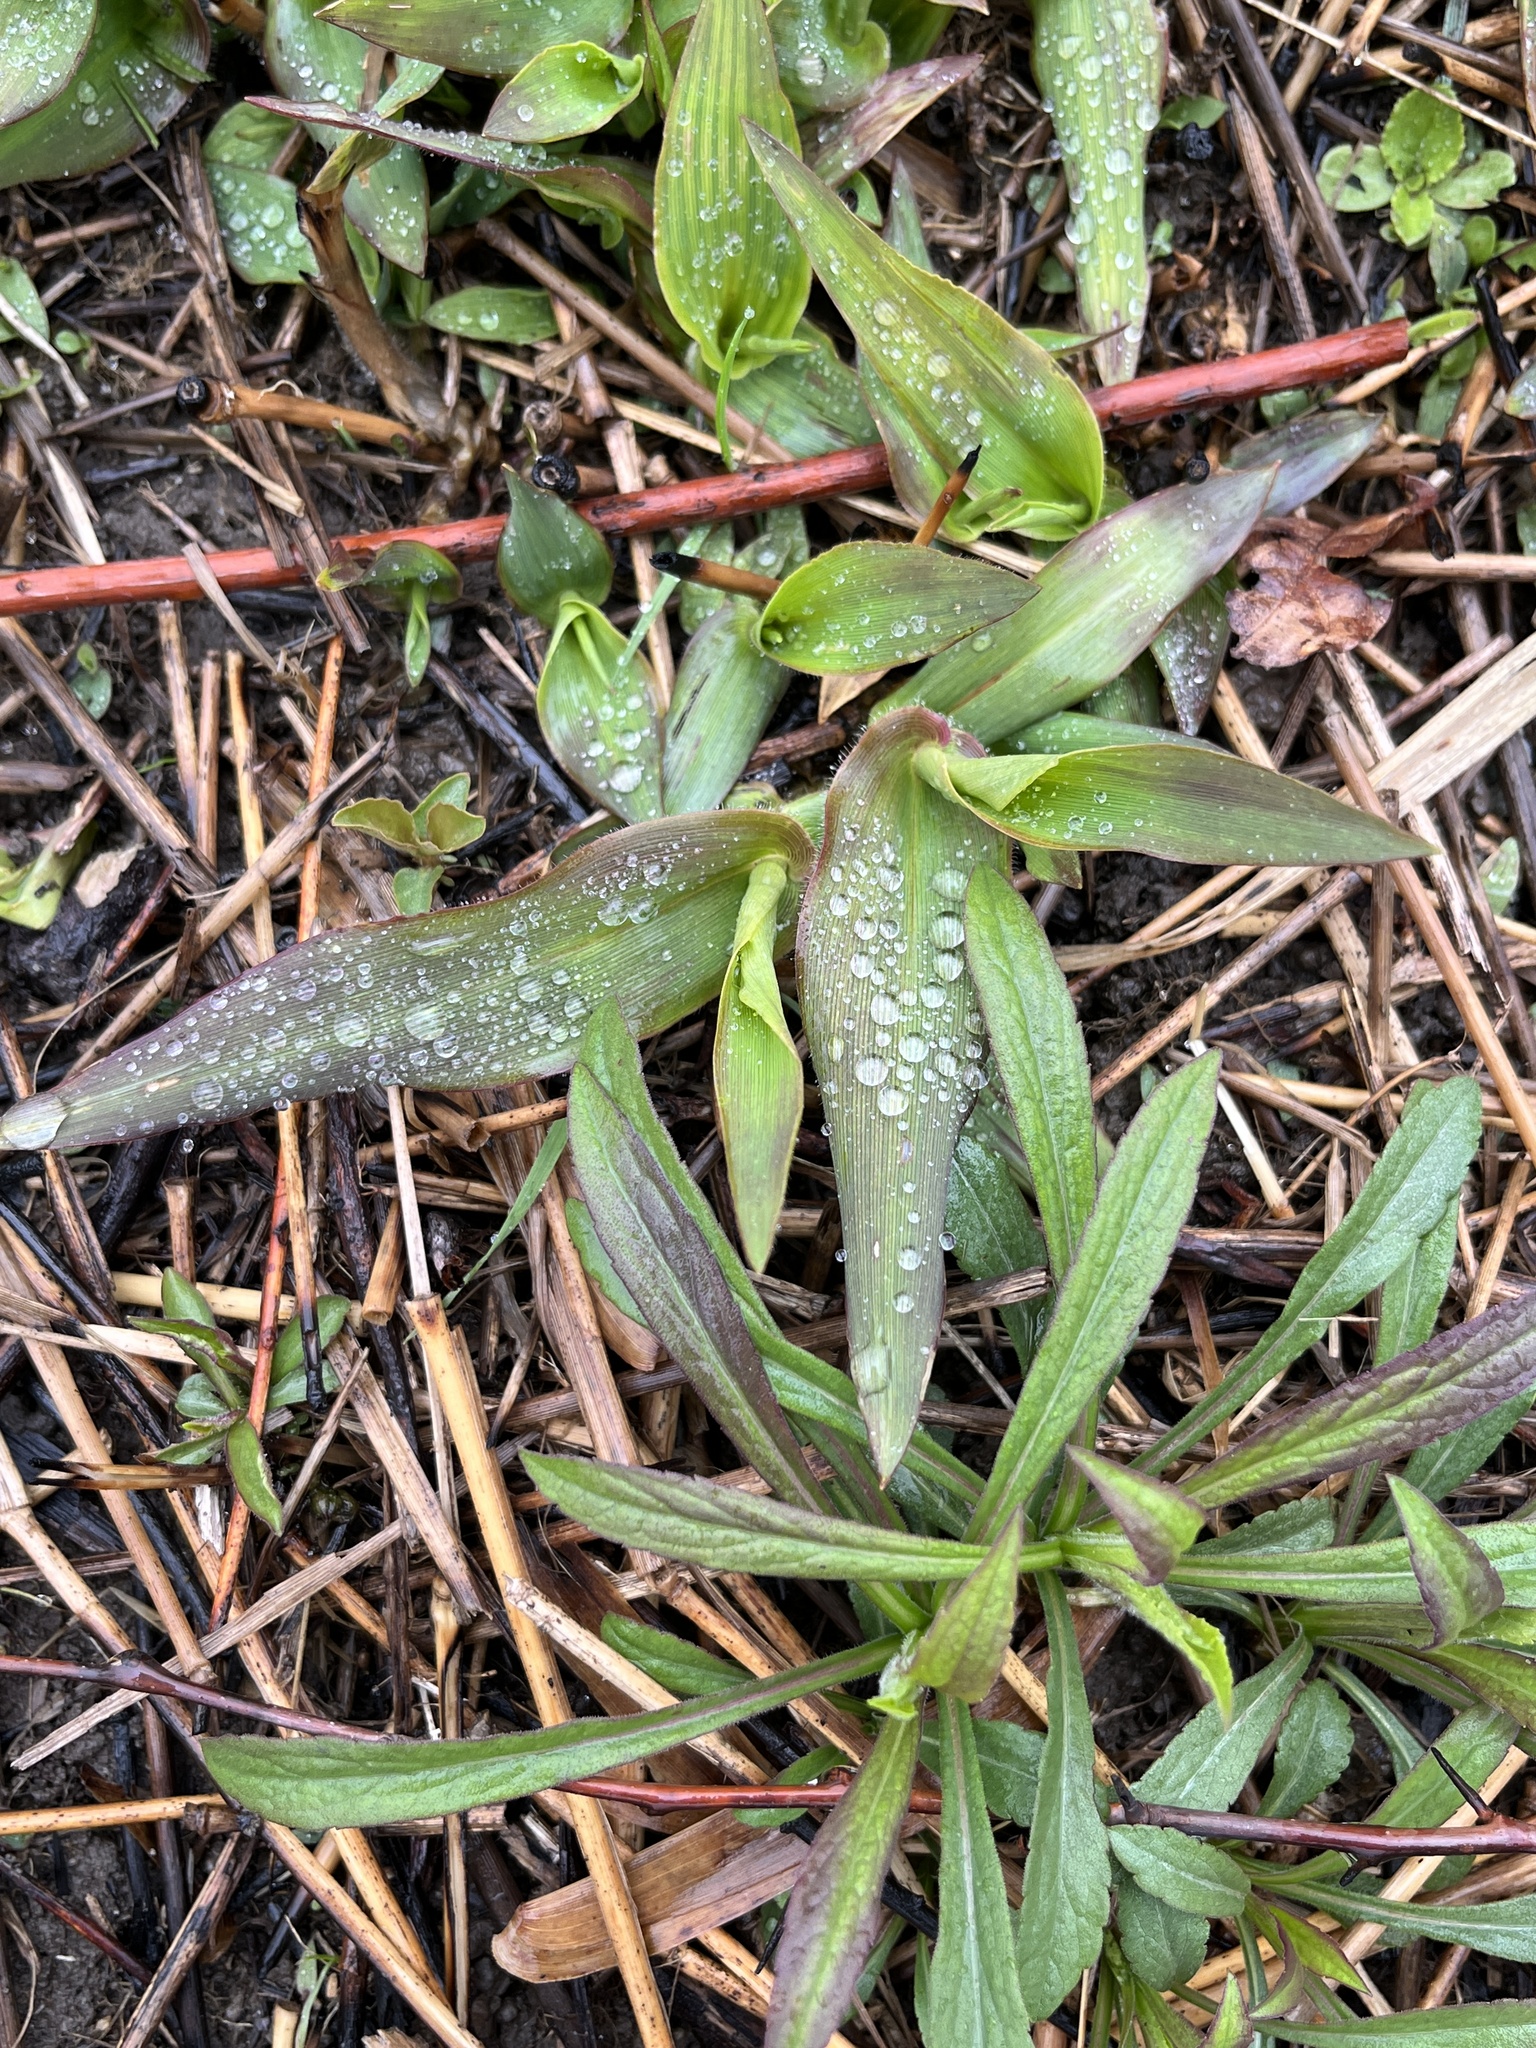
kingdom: Plantae
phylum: Tracheophyta
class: Liliopsida
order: Poales
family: Poaceae
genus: Dichanthelium
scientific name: Dichanthelium clandestinum
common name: Deer-tongue grass
